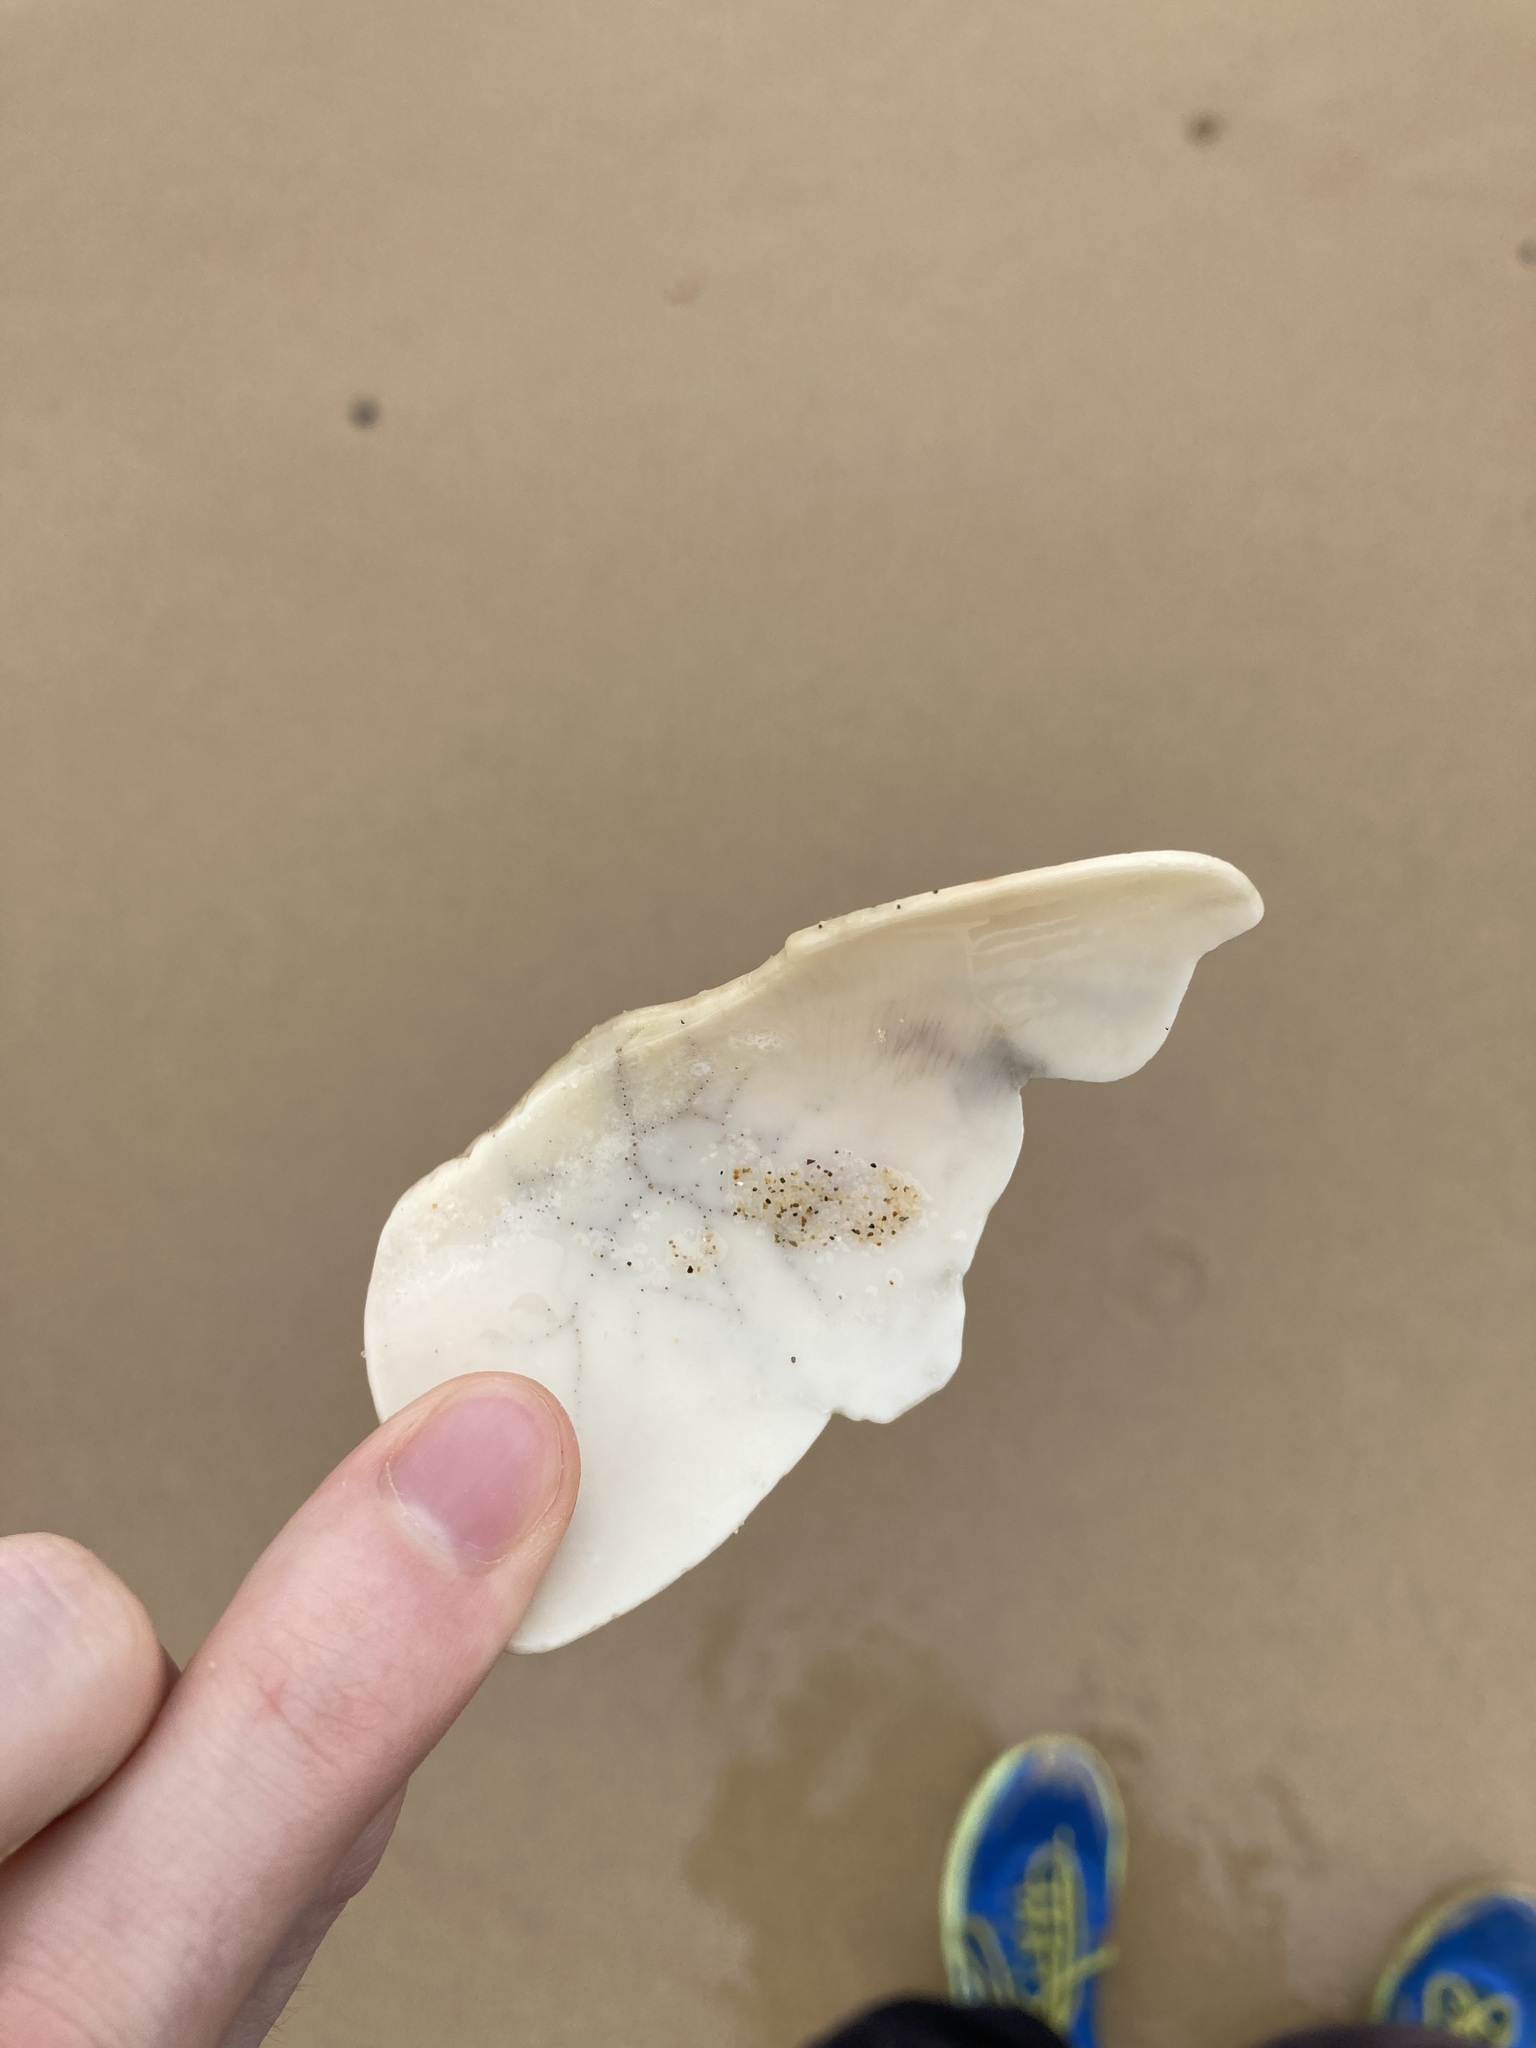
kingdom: Animalia
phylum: Mollusca
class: Gastropoda
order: Neogastropoda
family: Volutidae
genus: Cymbiola
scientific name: Cymbiola magnifica
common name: Magnificent volute
